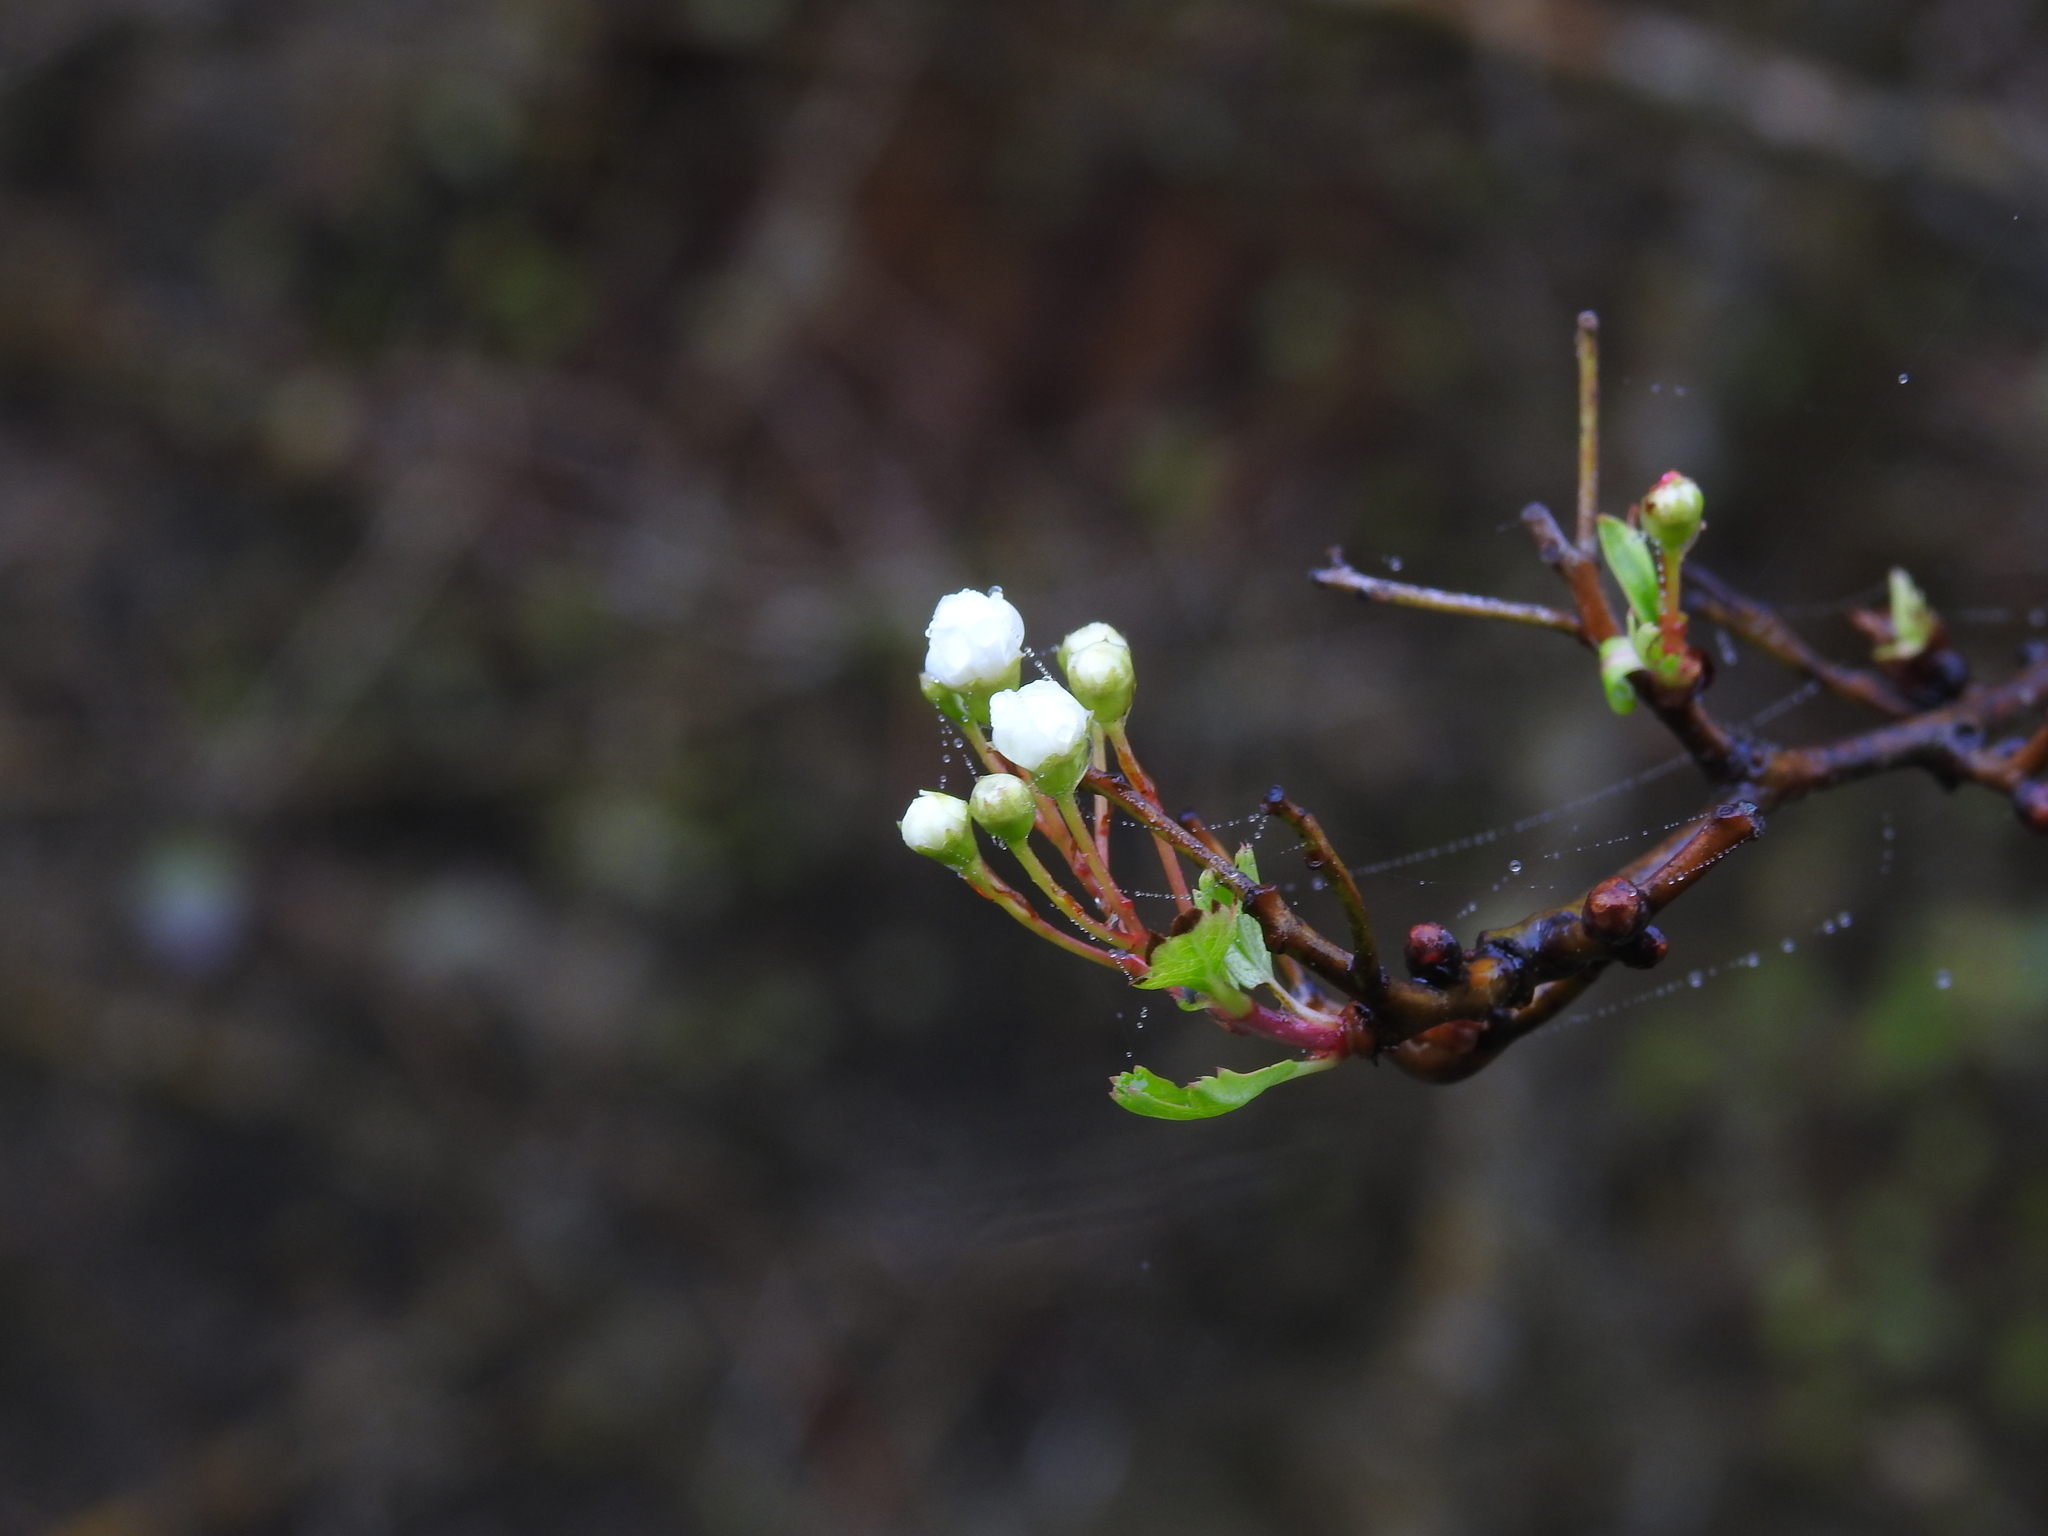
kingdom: Plantae
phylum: Tracheophyta
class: Magnoliopsida
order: Rosales
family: Rosaceae
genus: Crataegus
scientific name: Crataegus monogyna
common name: Hawthorn
